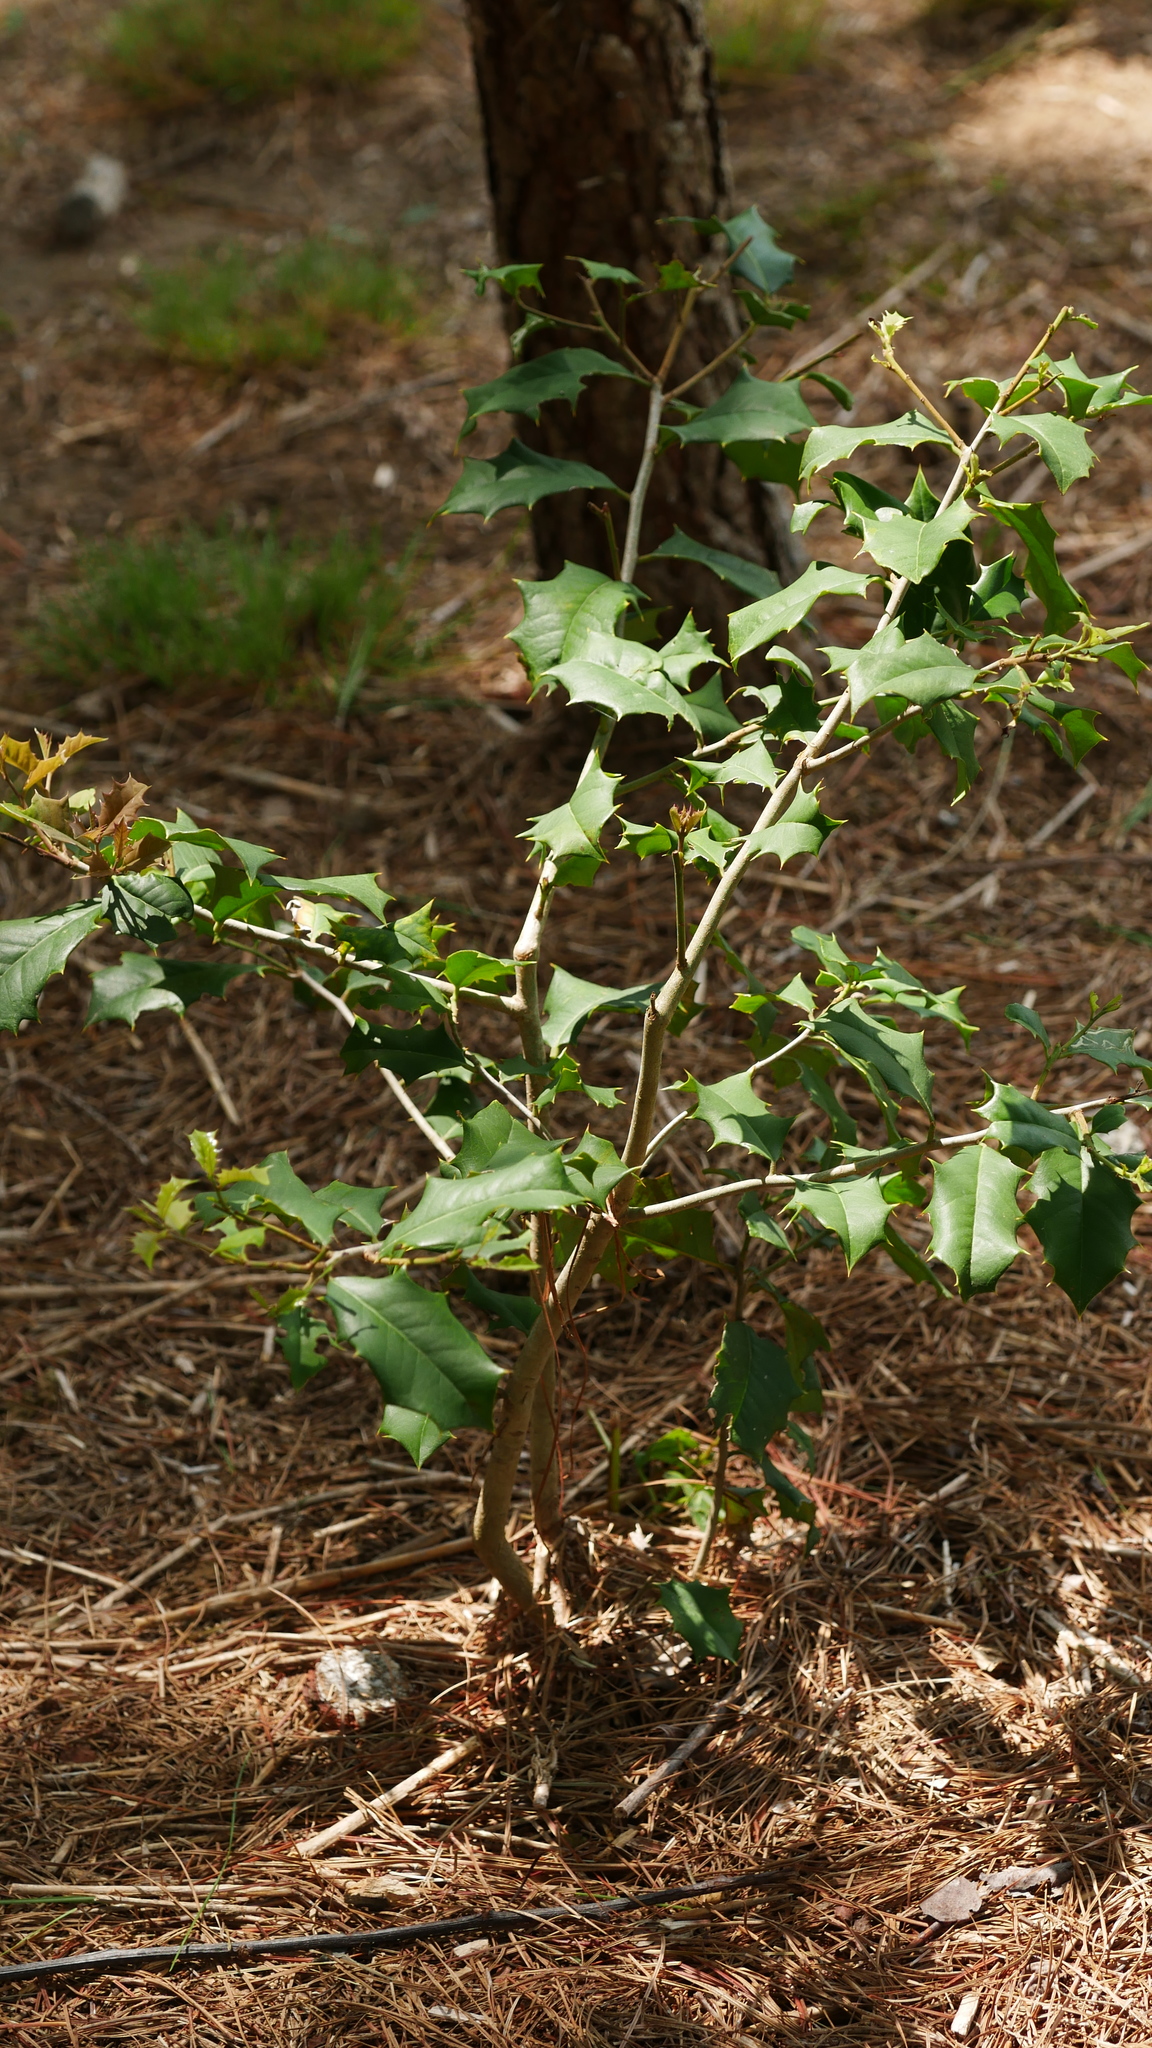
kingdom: Plantae
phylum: Tracheophyta
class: Magnoliopsida
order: Aquifoliales
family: Aquifoliaceae
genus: Ilex
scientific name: Ilex opaca
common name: American holly
